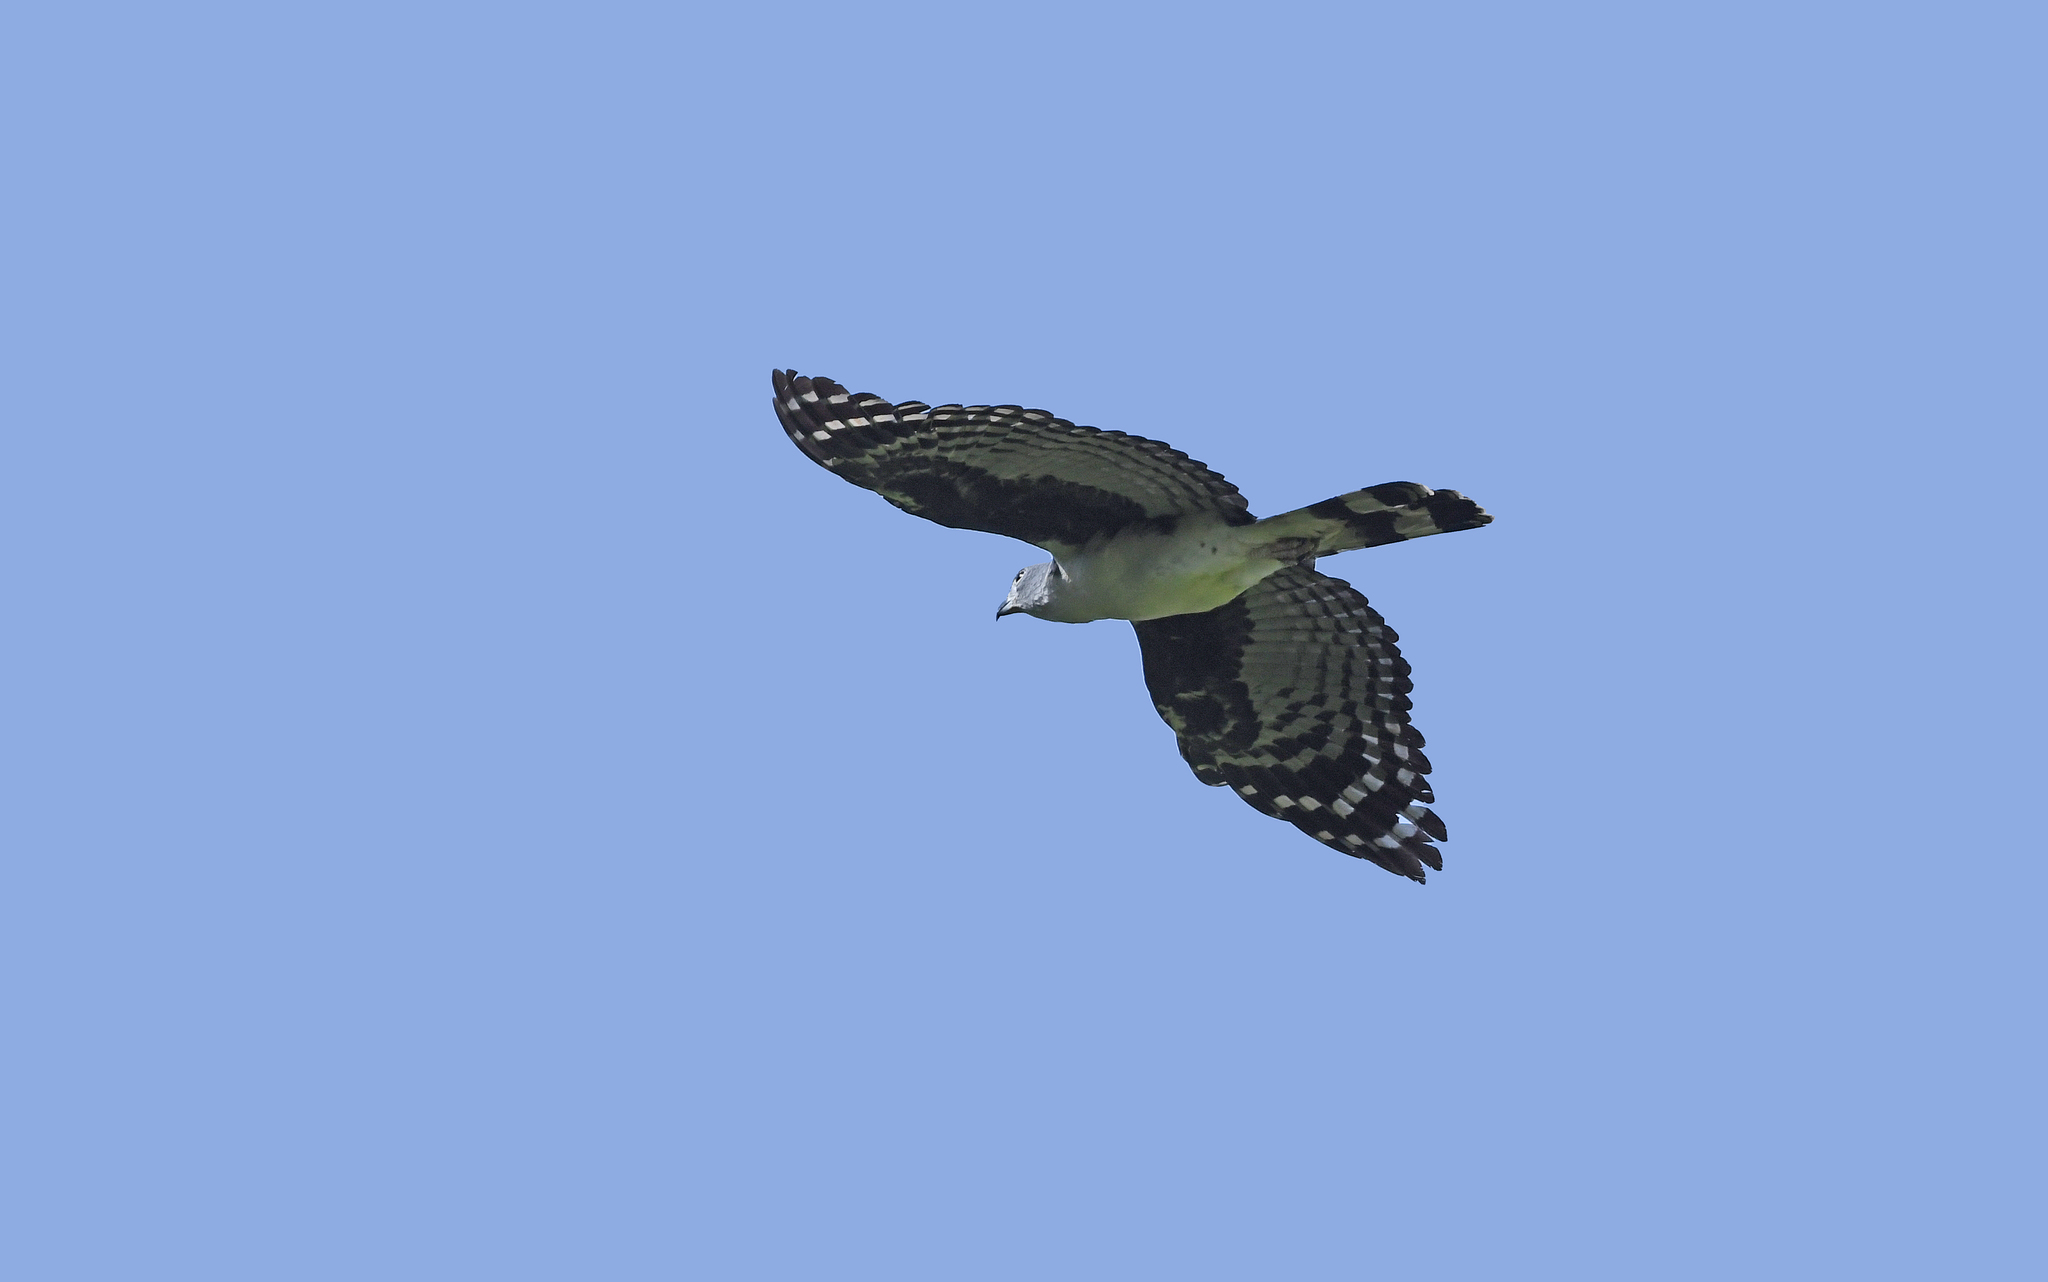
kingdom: Animalia
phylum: Chordata
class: Aves
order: Accipitriformes
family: Accipitridae
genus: Leptodon
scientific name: Leptodon cayanensis
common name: Gray-headed kite
